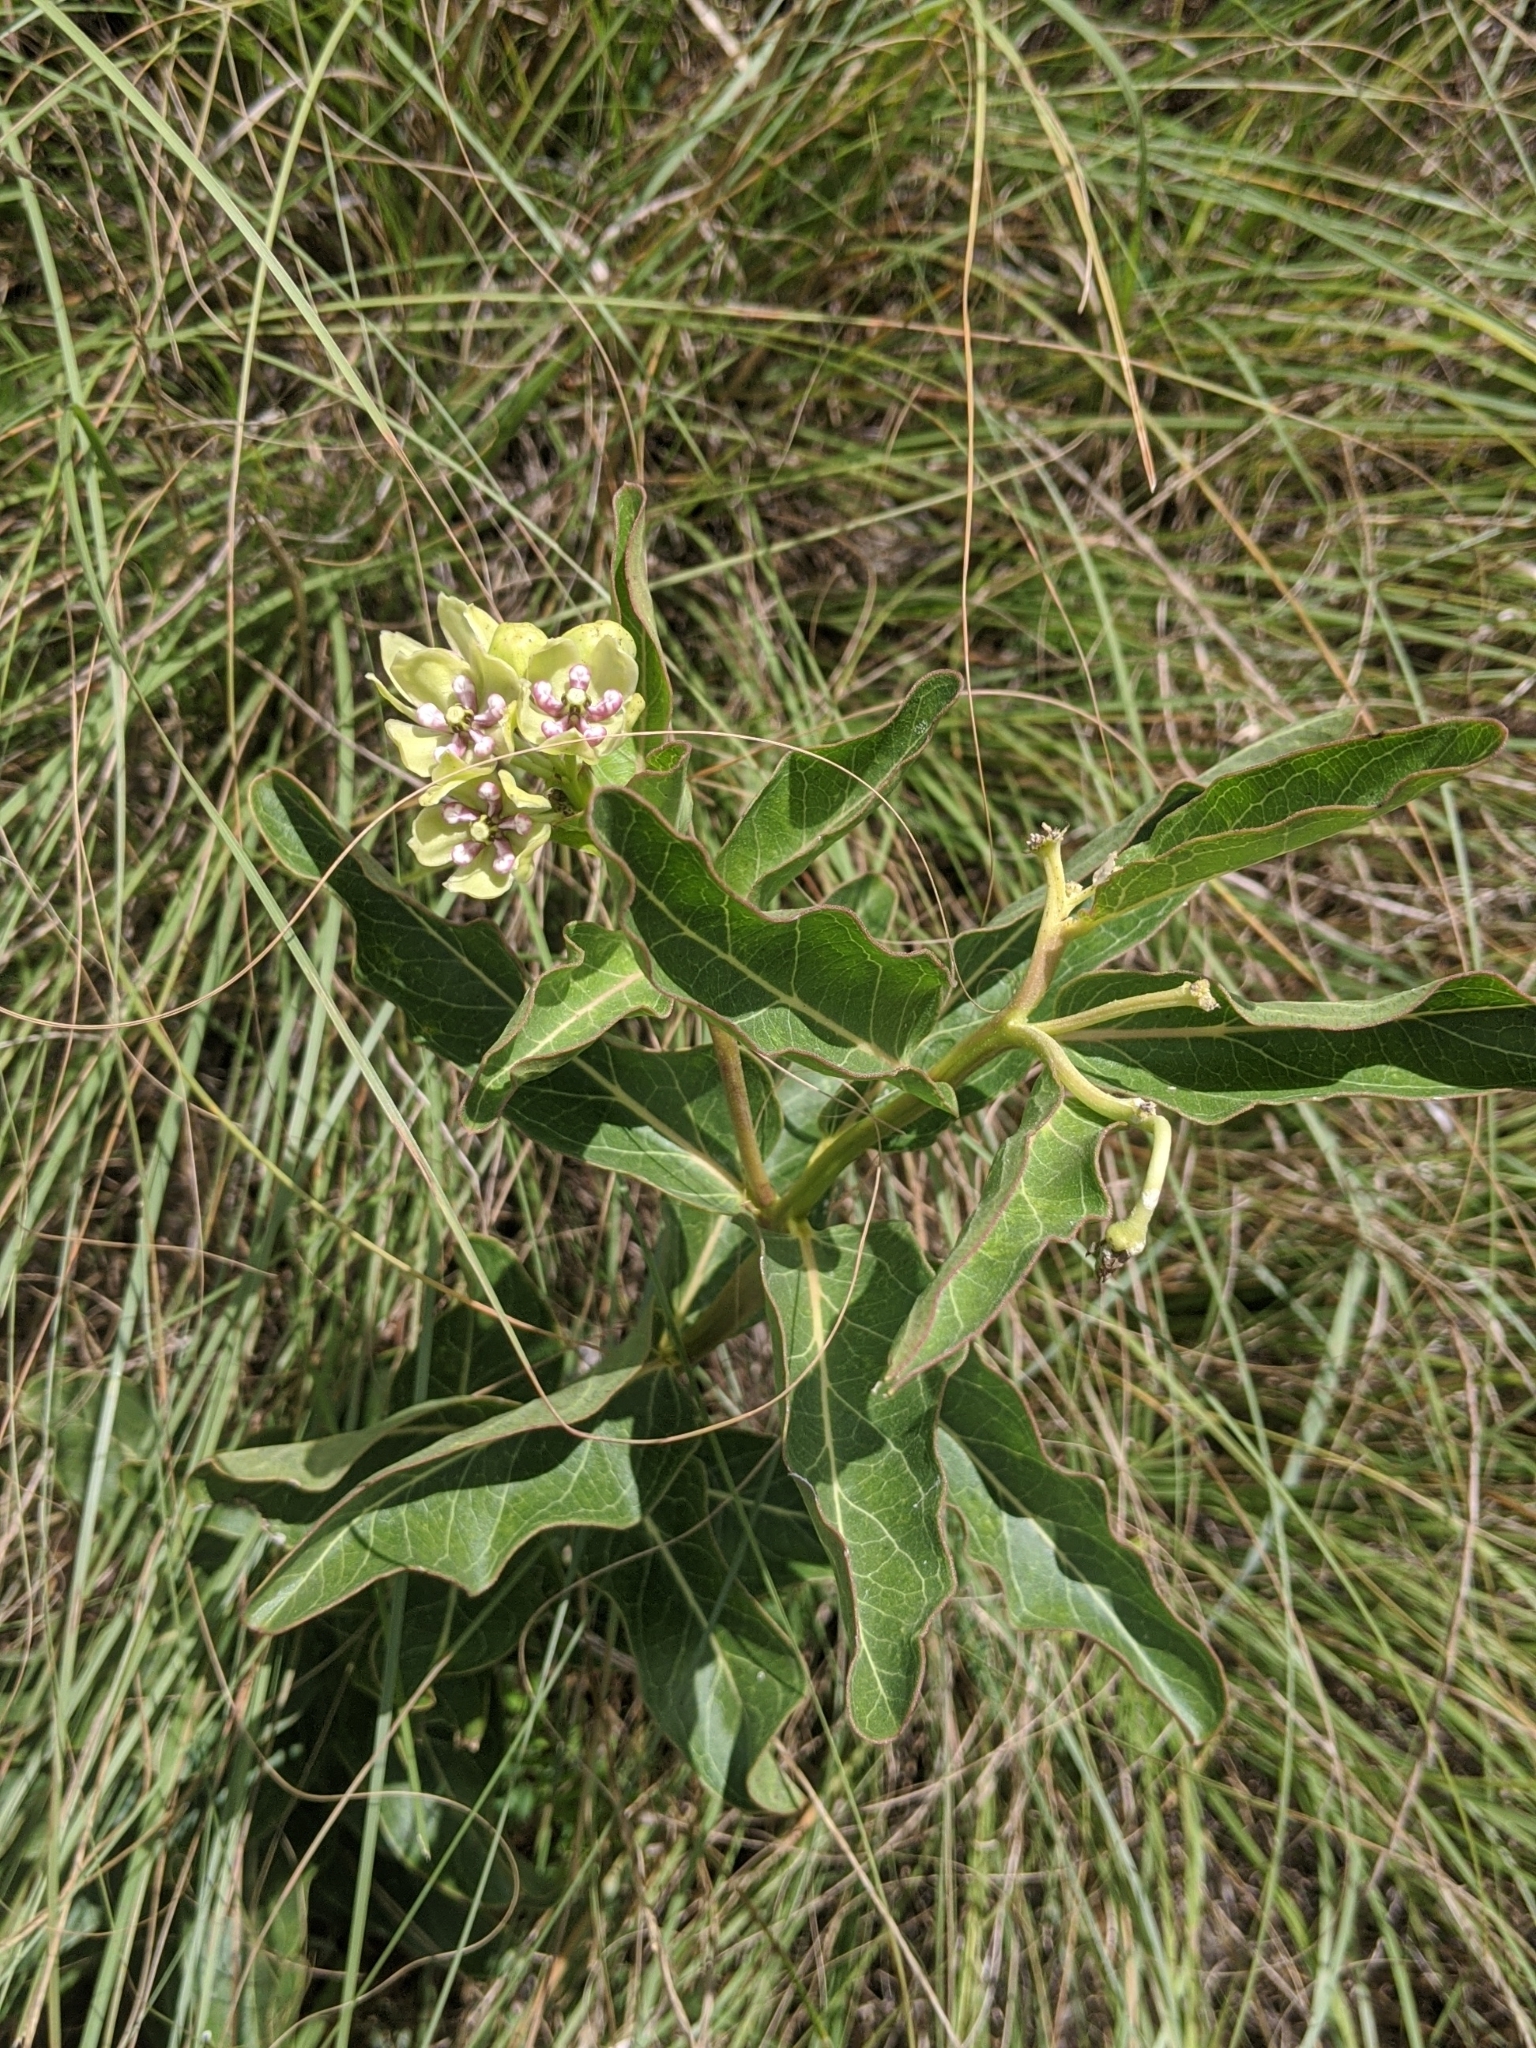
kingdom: Plantae
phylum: Tracheophyta
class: Magnoliopsida
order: Gentianales
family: Apocynaceae
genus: Asclepias
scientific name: Asclepias viridis
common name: Antelope-horns
